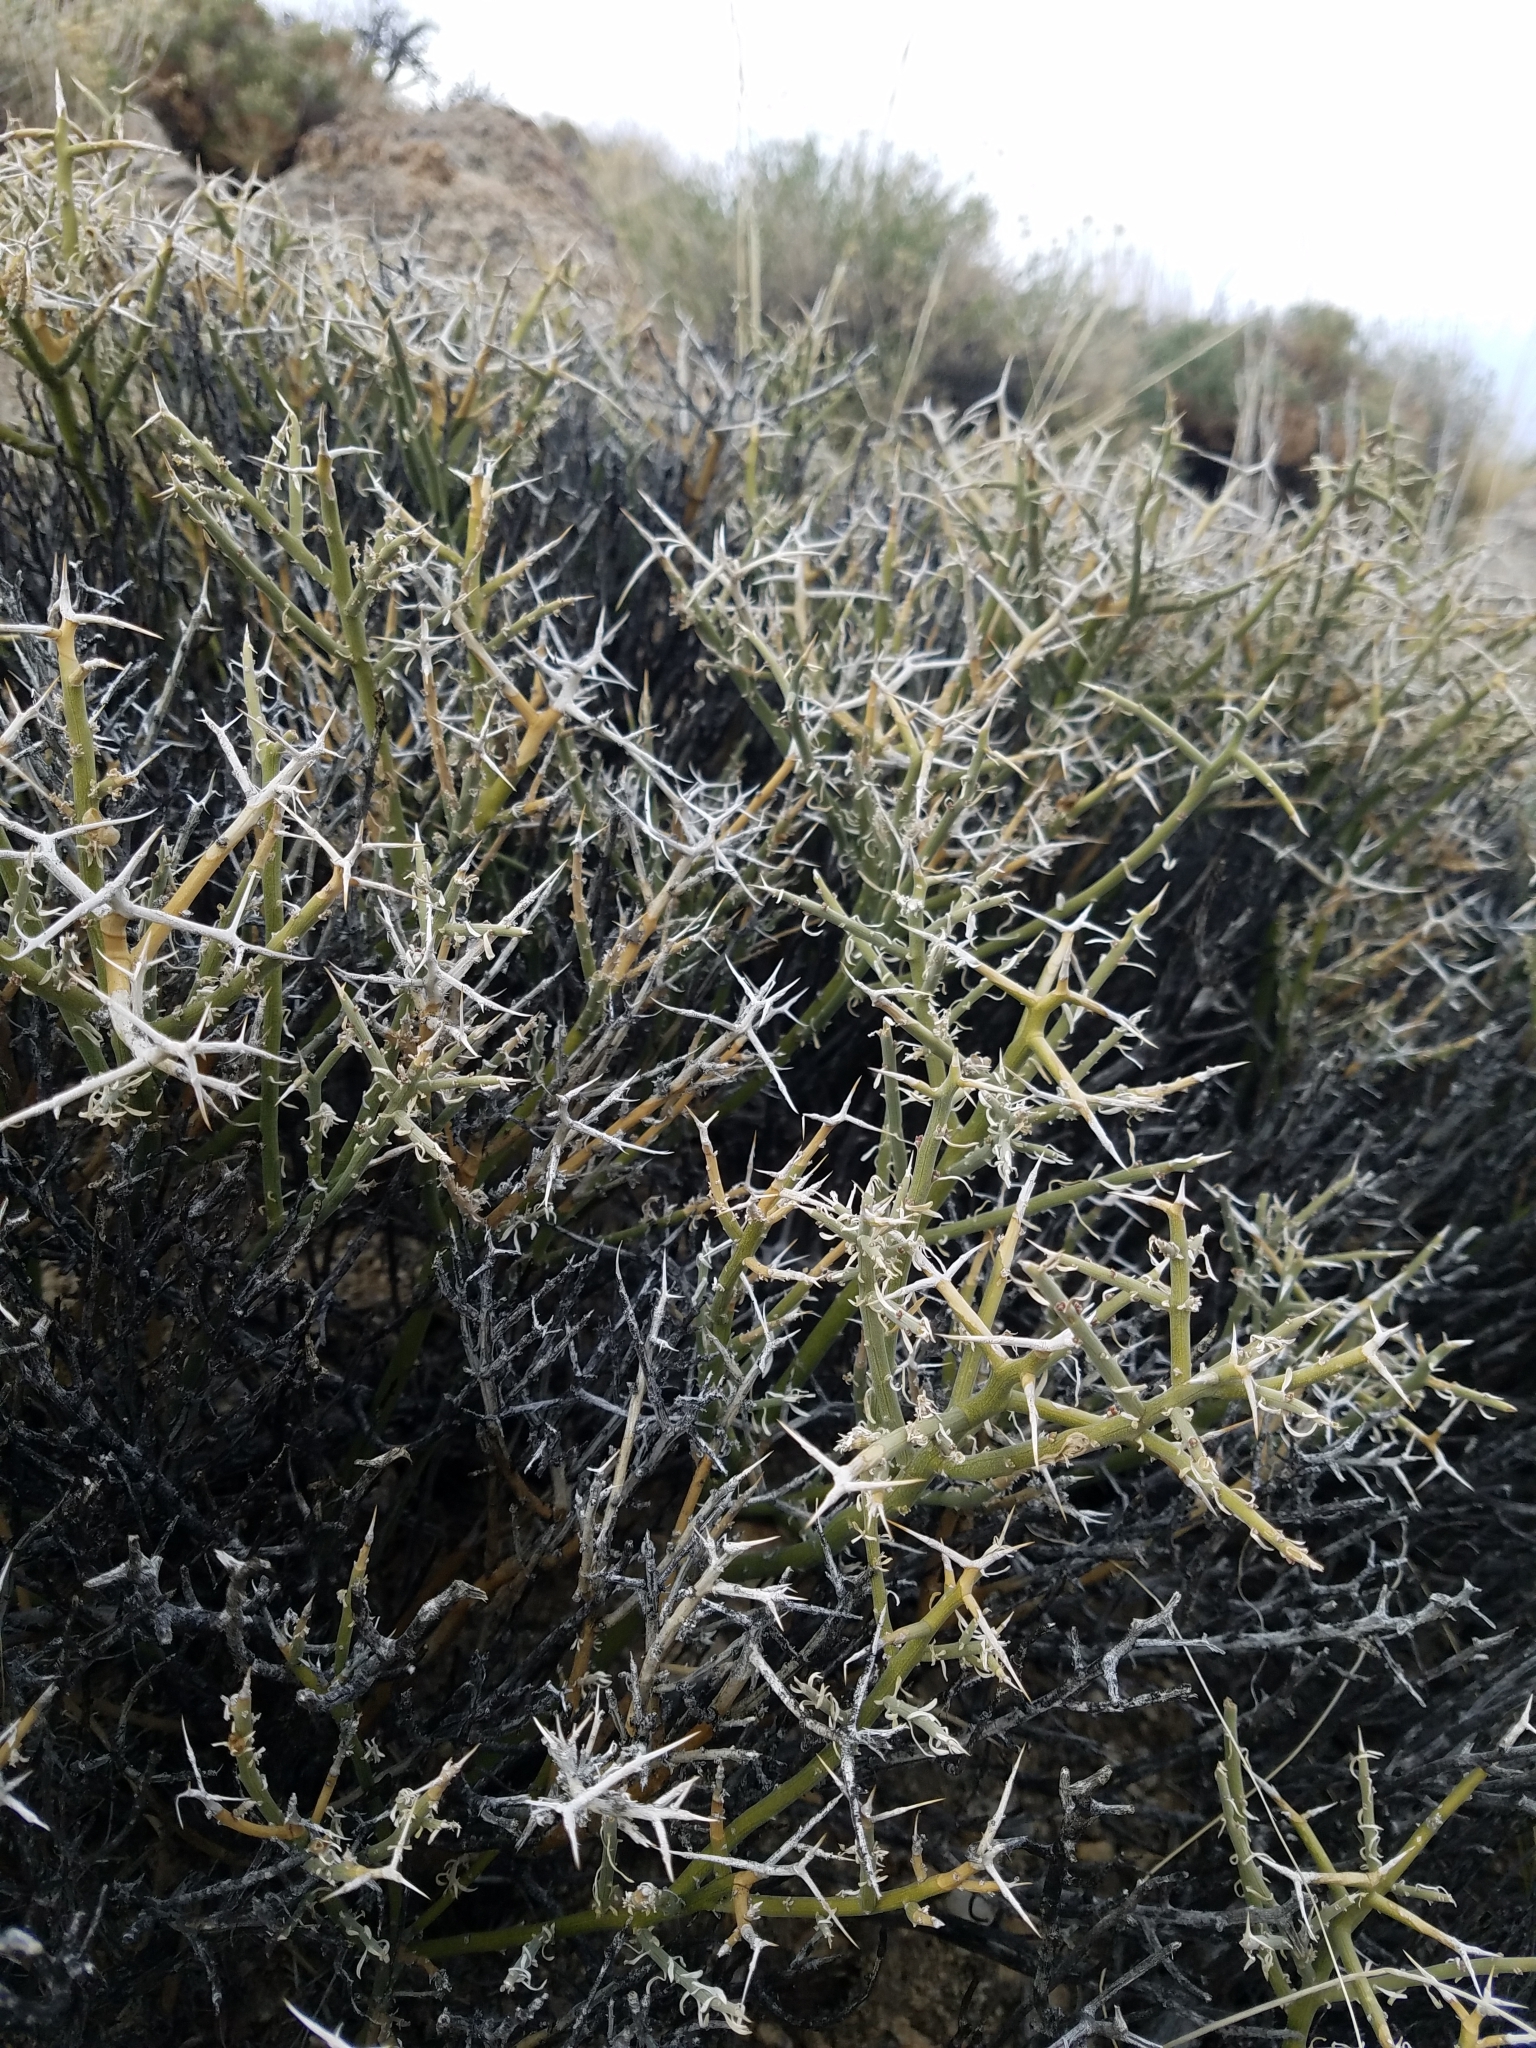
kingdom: Plantae
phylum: Tracheophyta
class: Magnoliopsida
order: Lamiales
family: Oleaceae
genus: Menodora
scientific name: Menodora spinescens
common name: Spiny menodora
